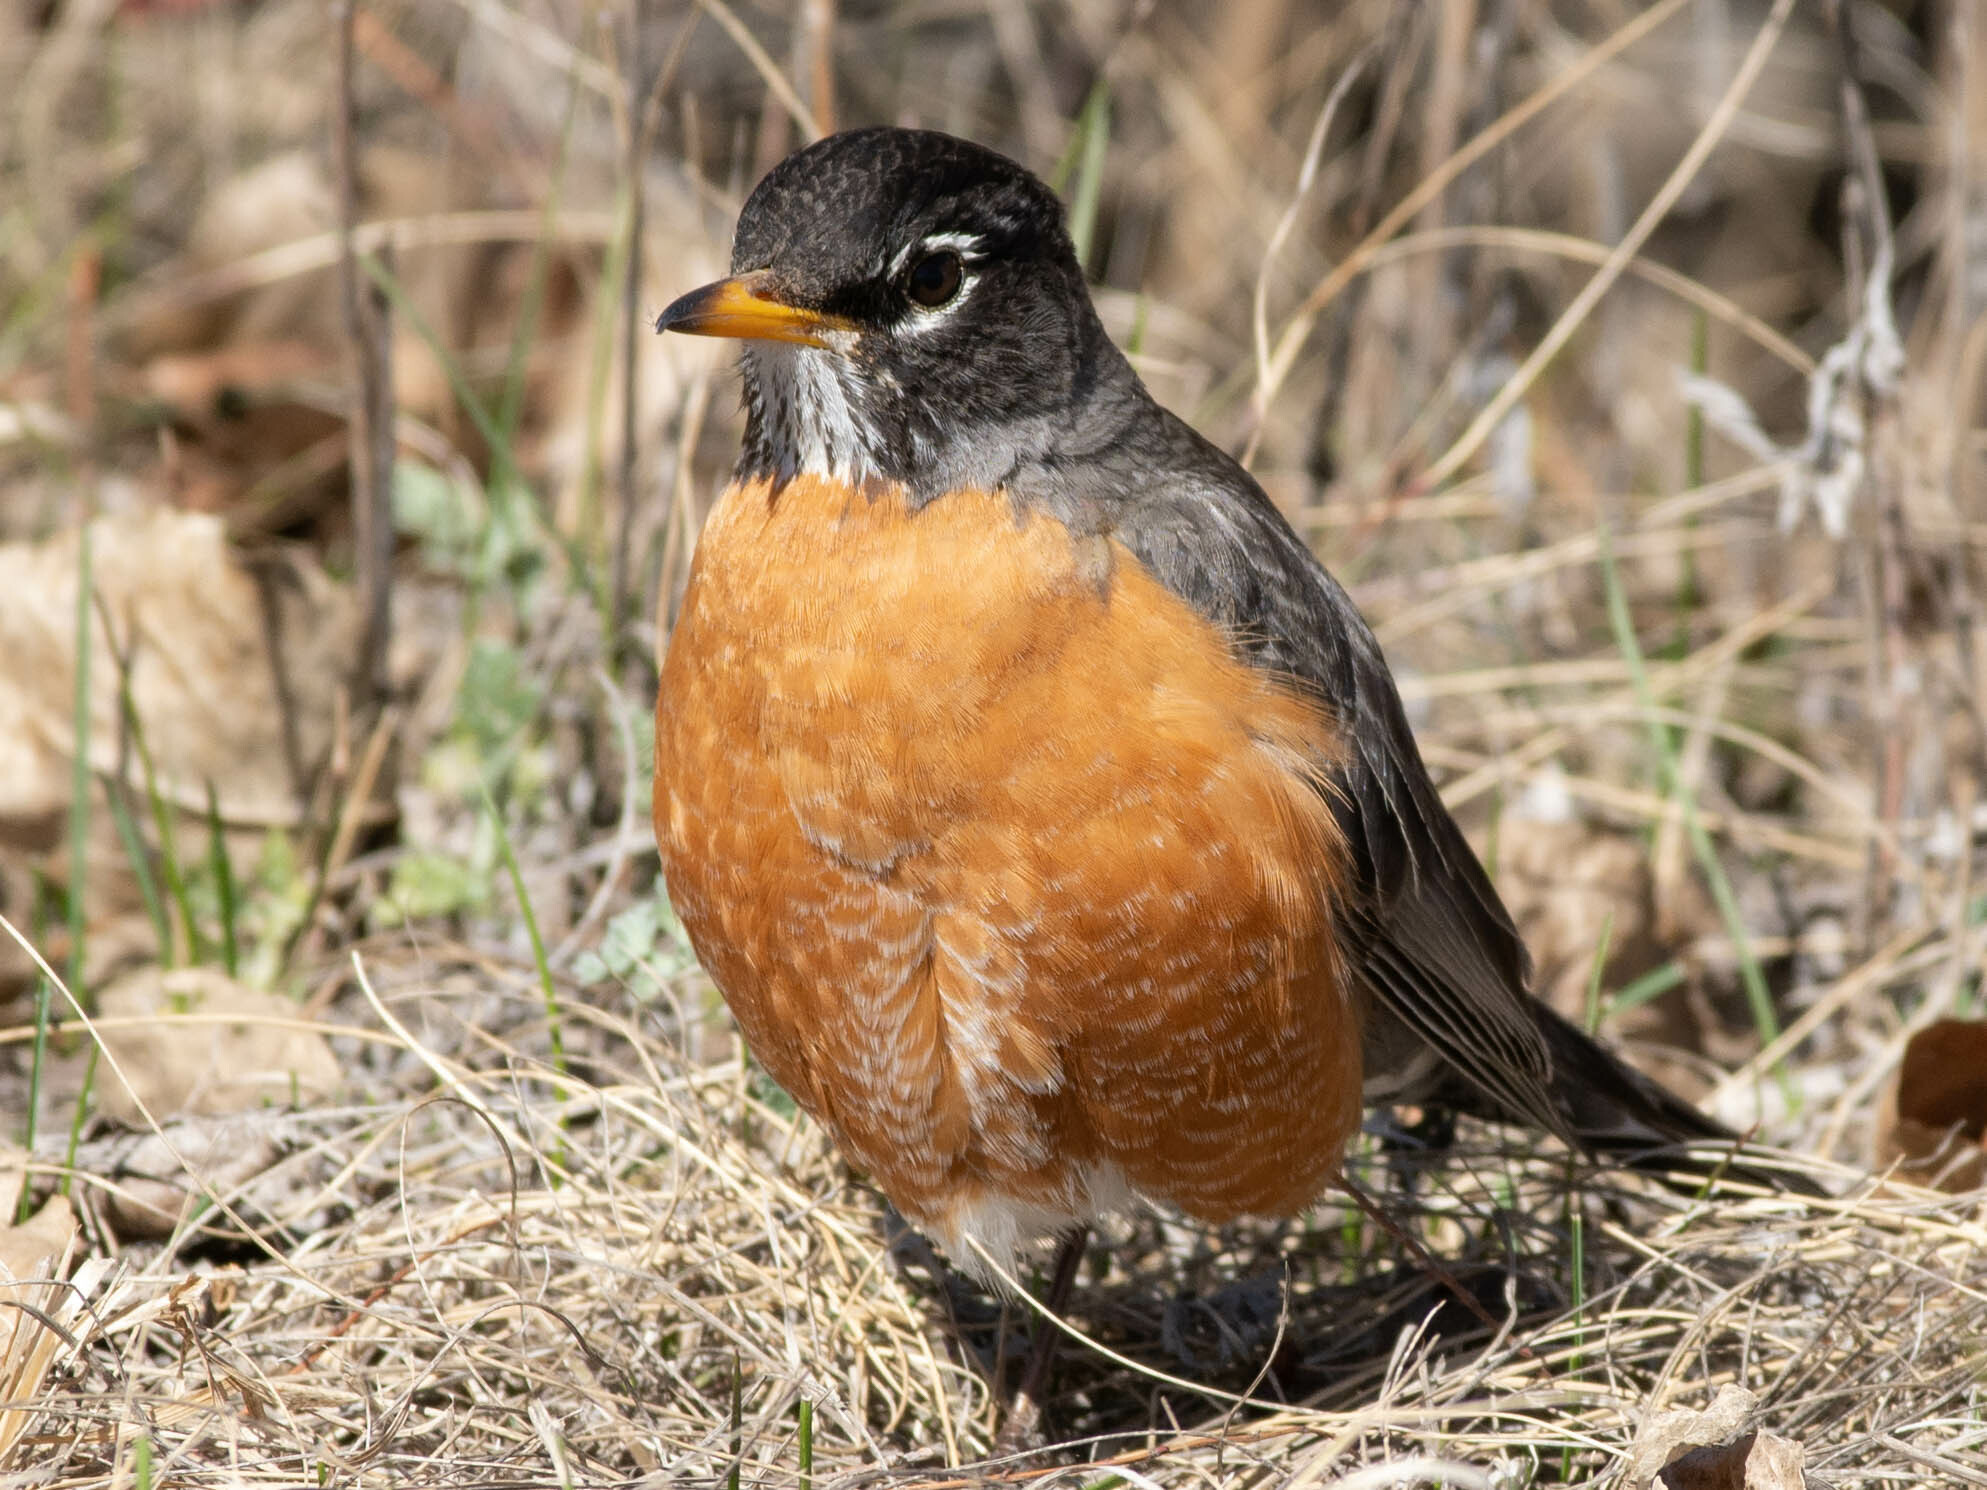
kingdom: Animalia
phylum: Chordata
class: Aves
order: Passeriformes
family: Turdidae
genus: Turdus
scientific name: Turdus migratorius
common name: American robin
